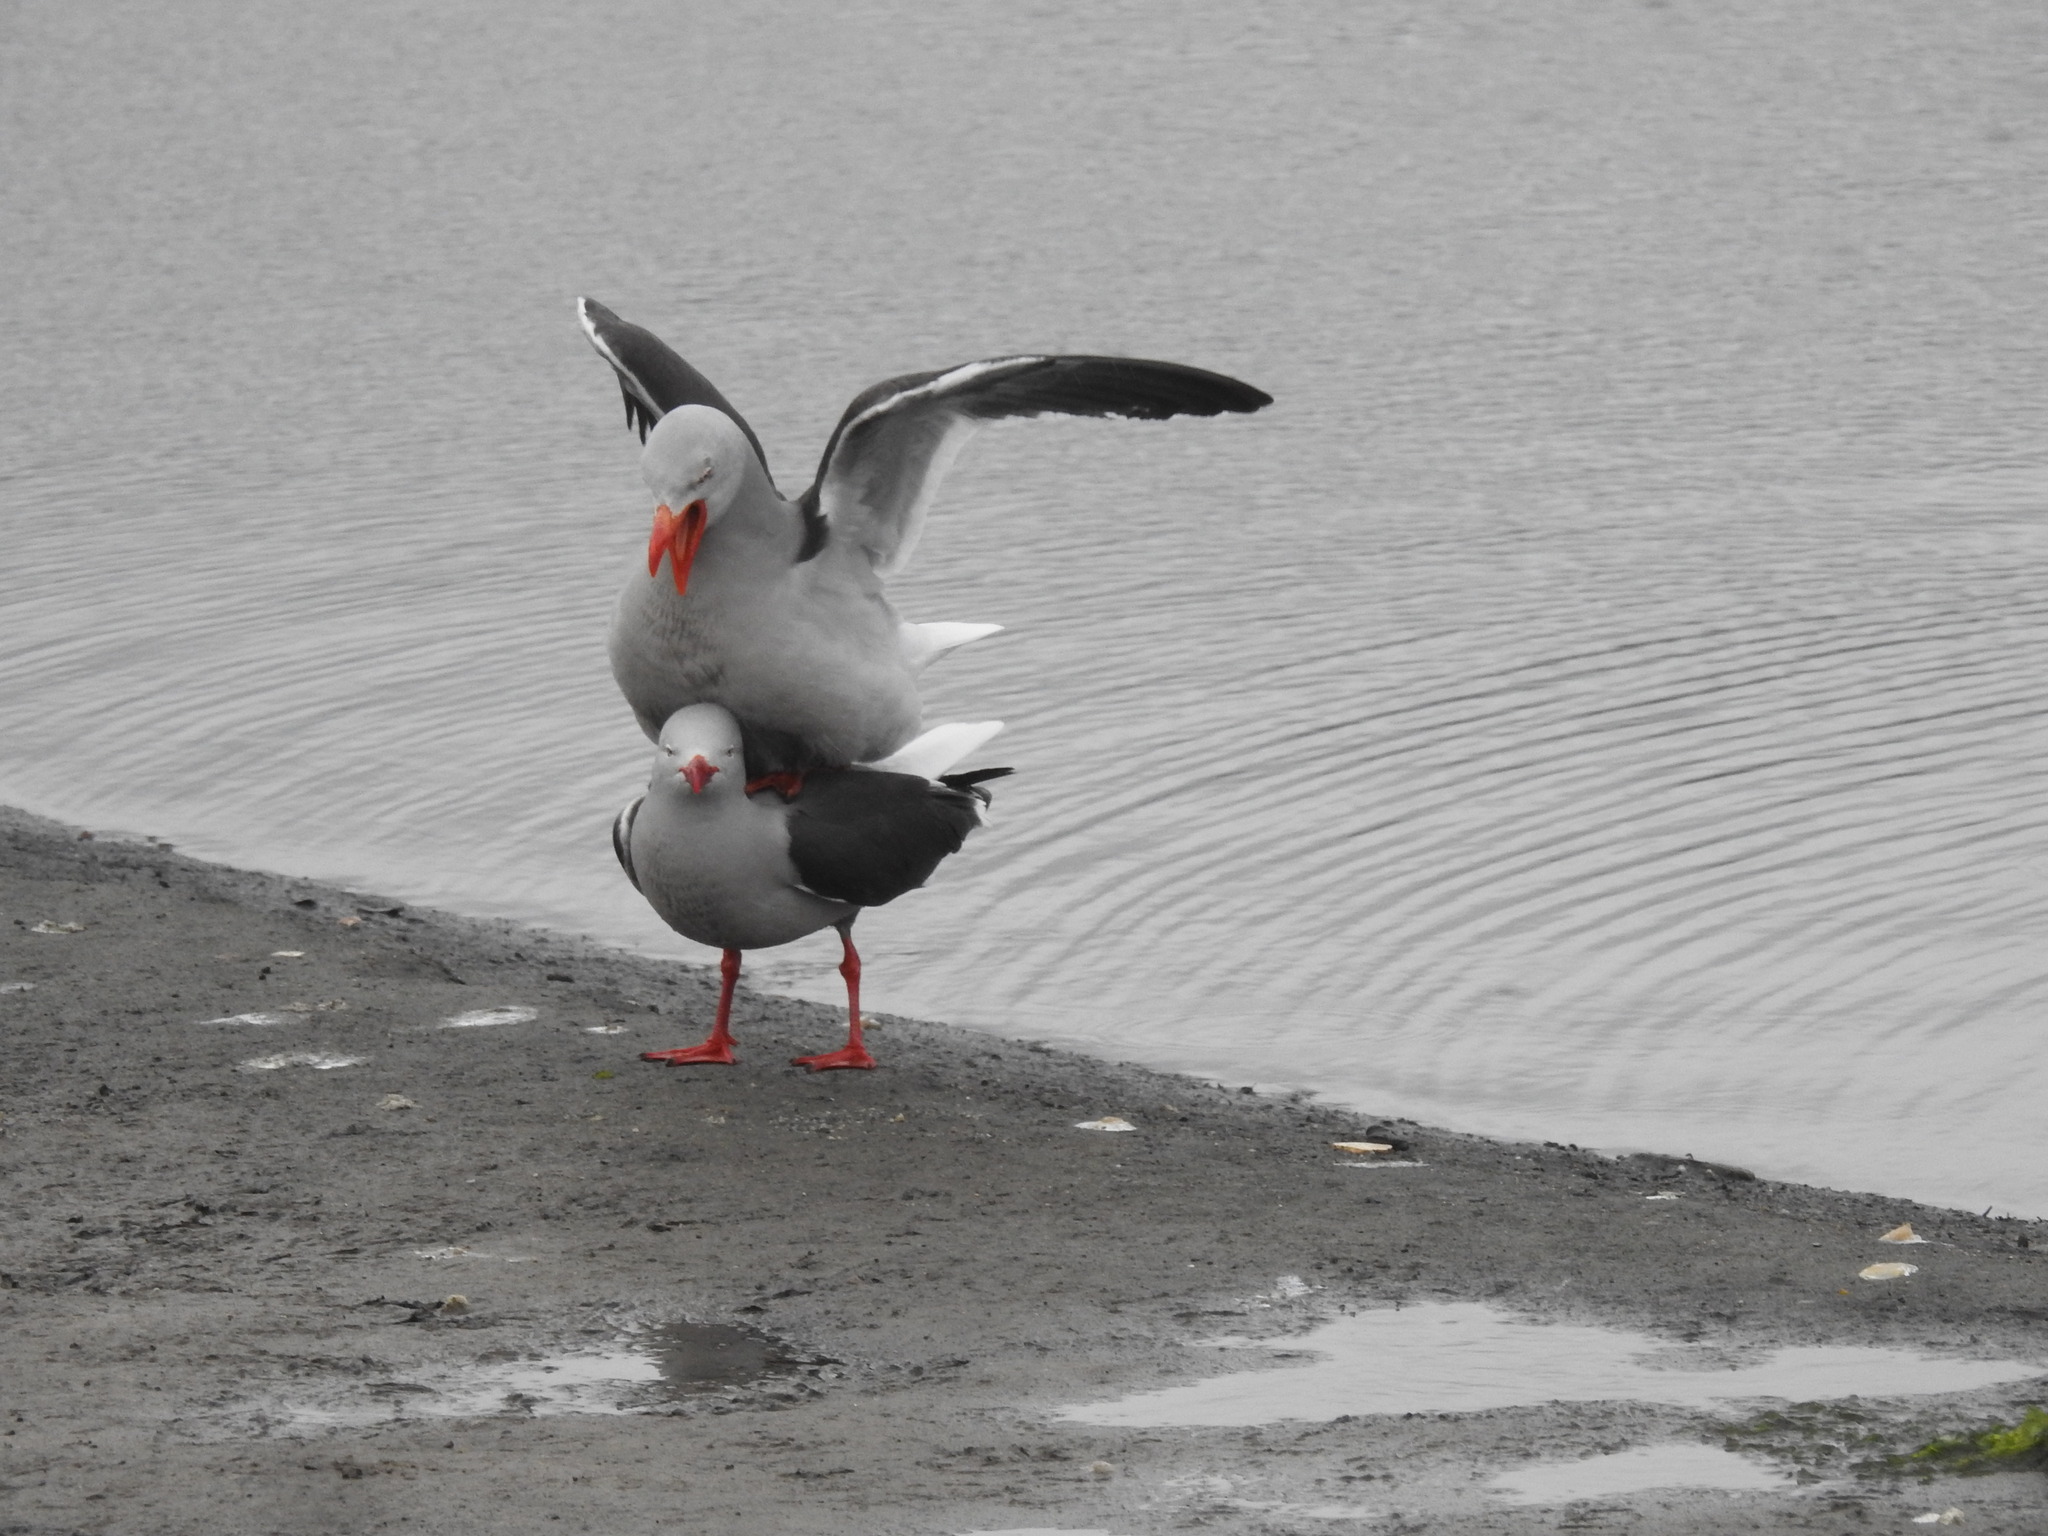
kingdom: Animalia
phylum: Chordata
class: Aves
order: Charadriiformes
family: Laridae
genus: Leucophaeus
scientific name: Leucophaeus scoresbii
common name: Dolphin gull
